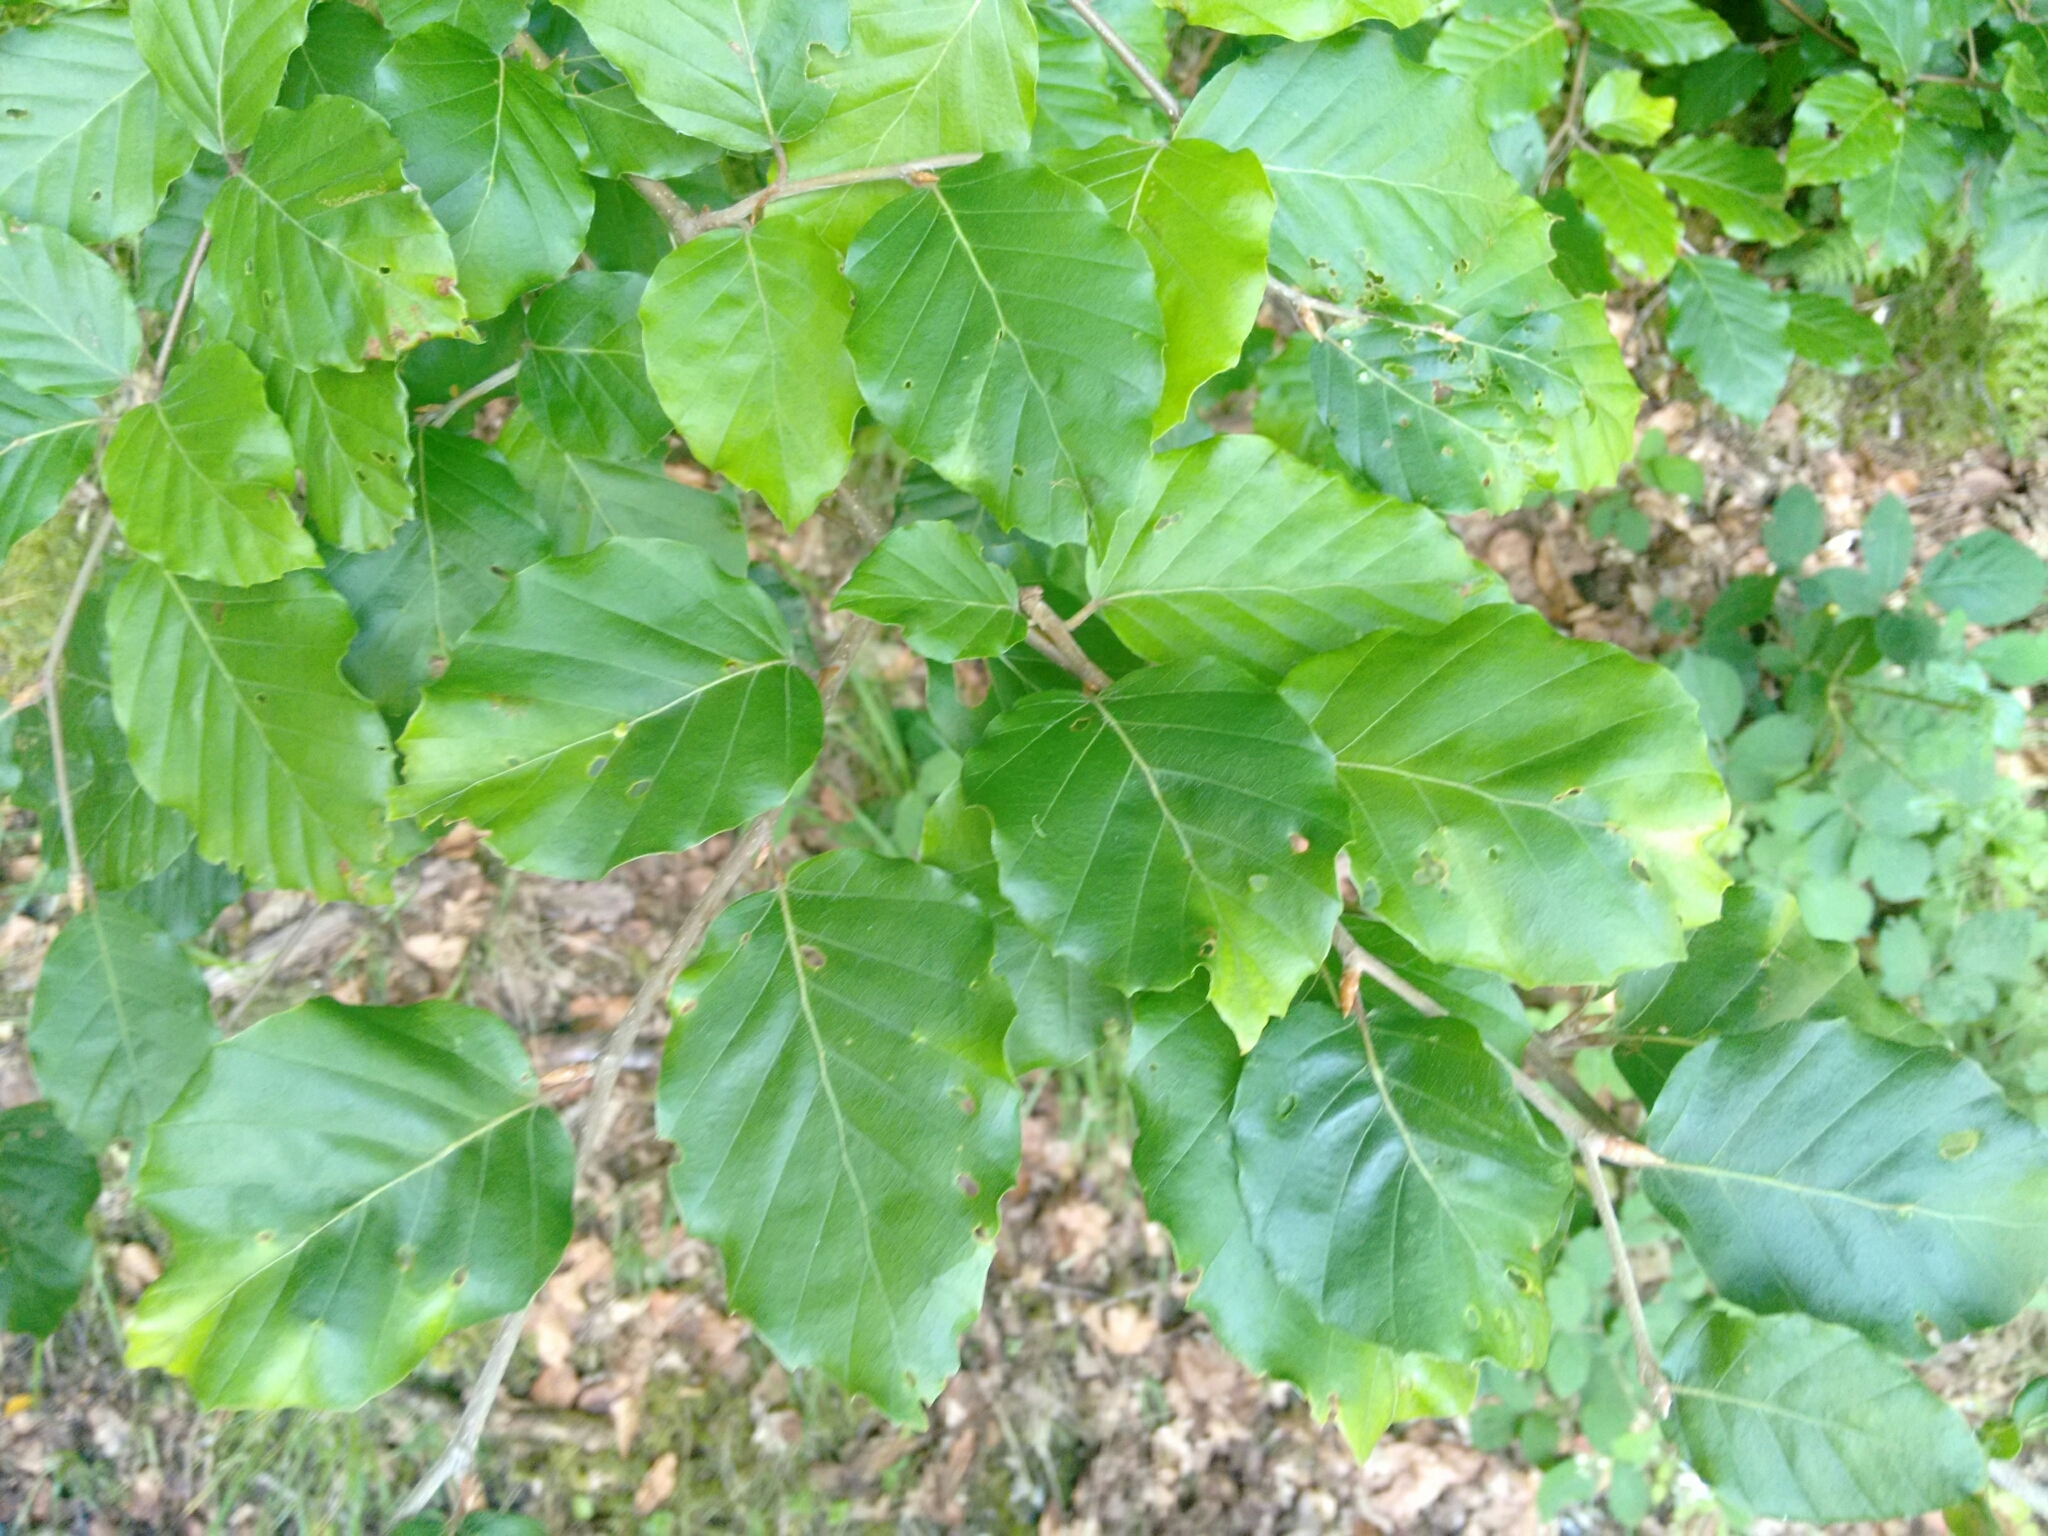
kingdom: Plantae
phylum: Tracheophyta
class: Magnoliopsida
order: Fagales
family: Fagaceae
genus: Fagus
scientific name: Fagus sylvatica
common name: Beech
